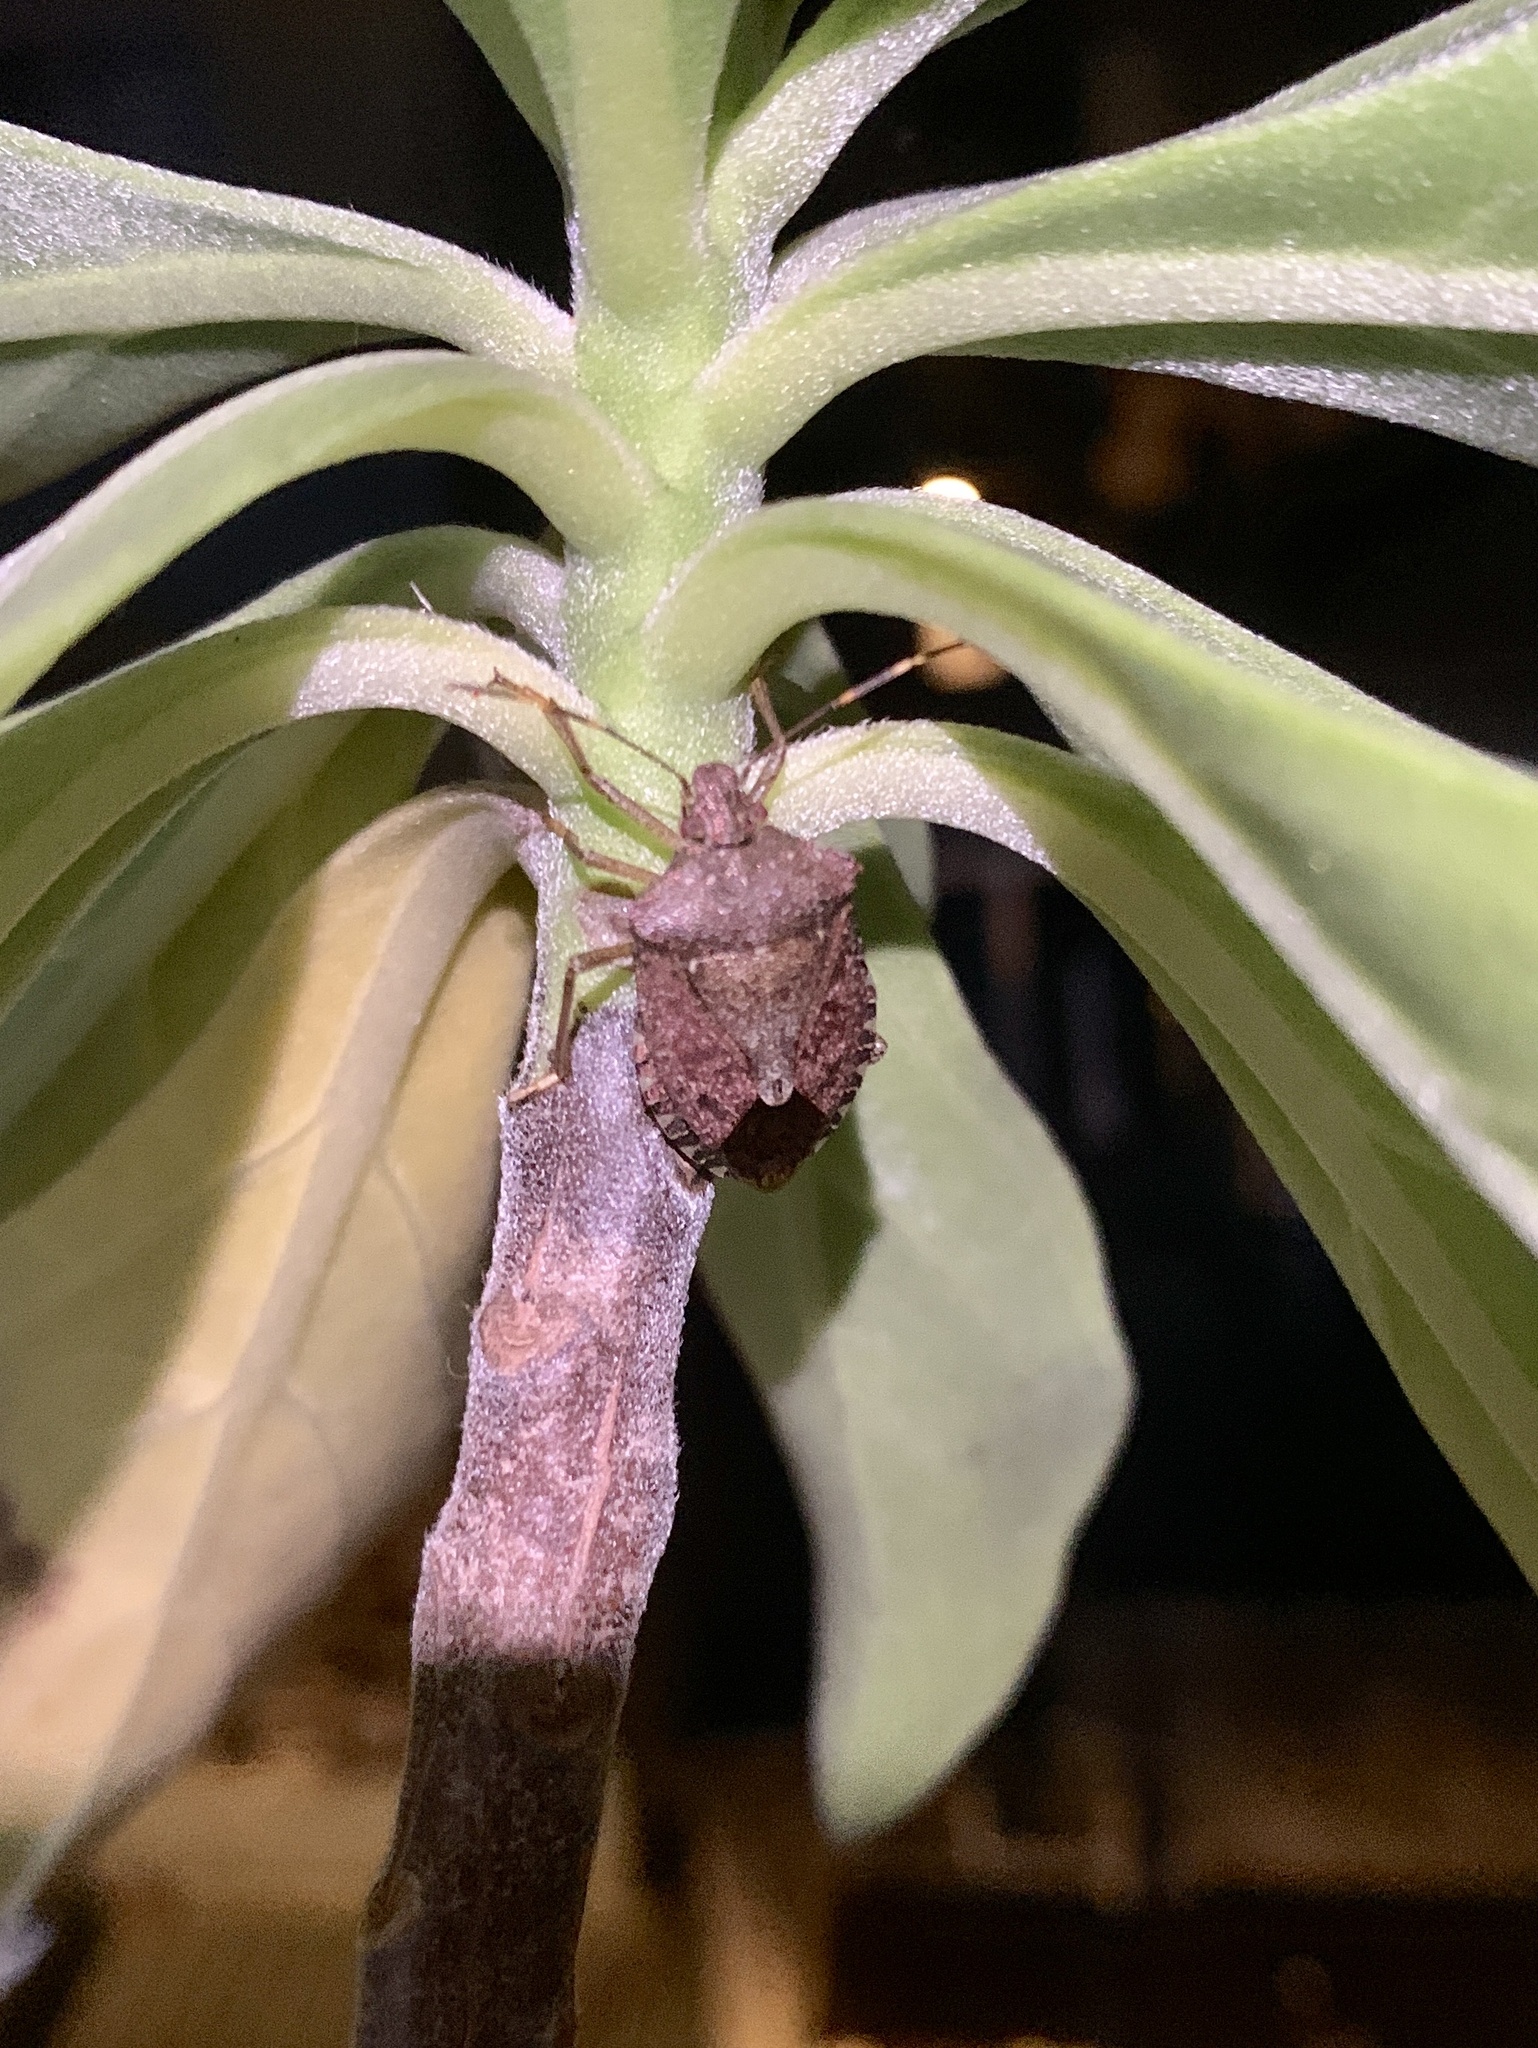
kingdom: Animalia
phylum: Arthropoda
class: Insecta
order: Hemiptera
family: Pentatomidae
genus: Halyomorpha
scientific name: Halyomorpha halys
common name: Brown marmorated stink bug
